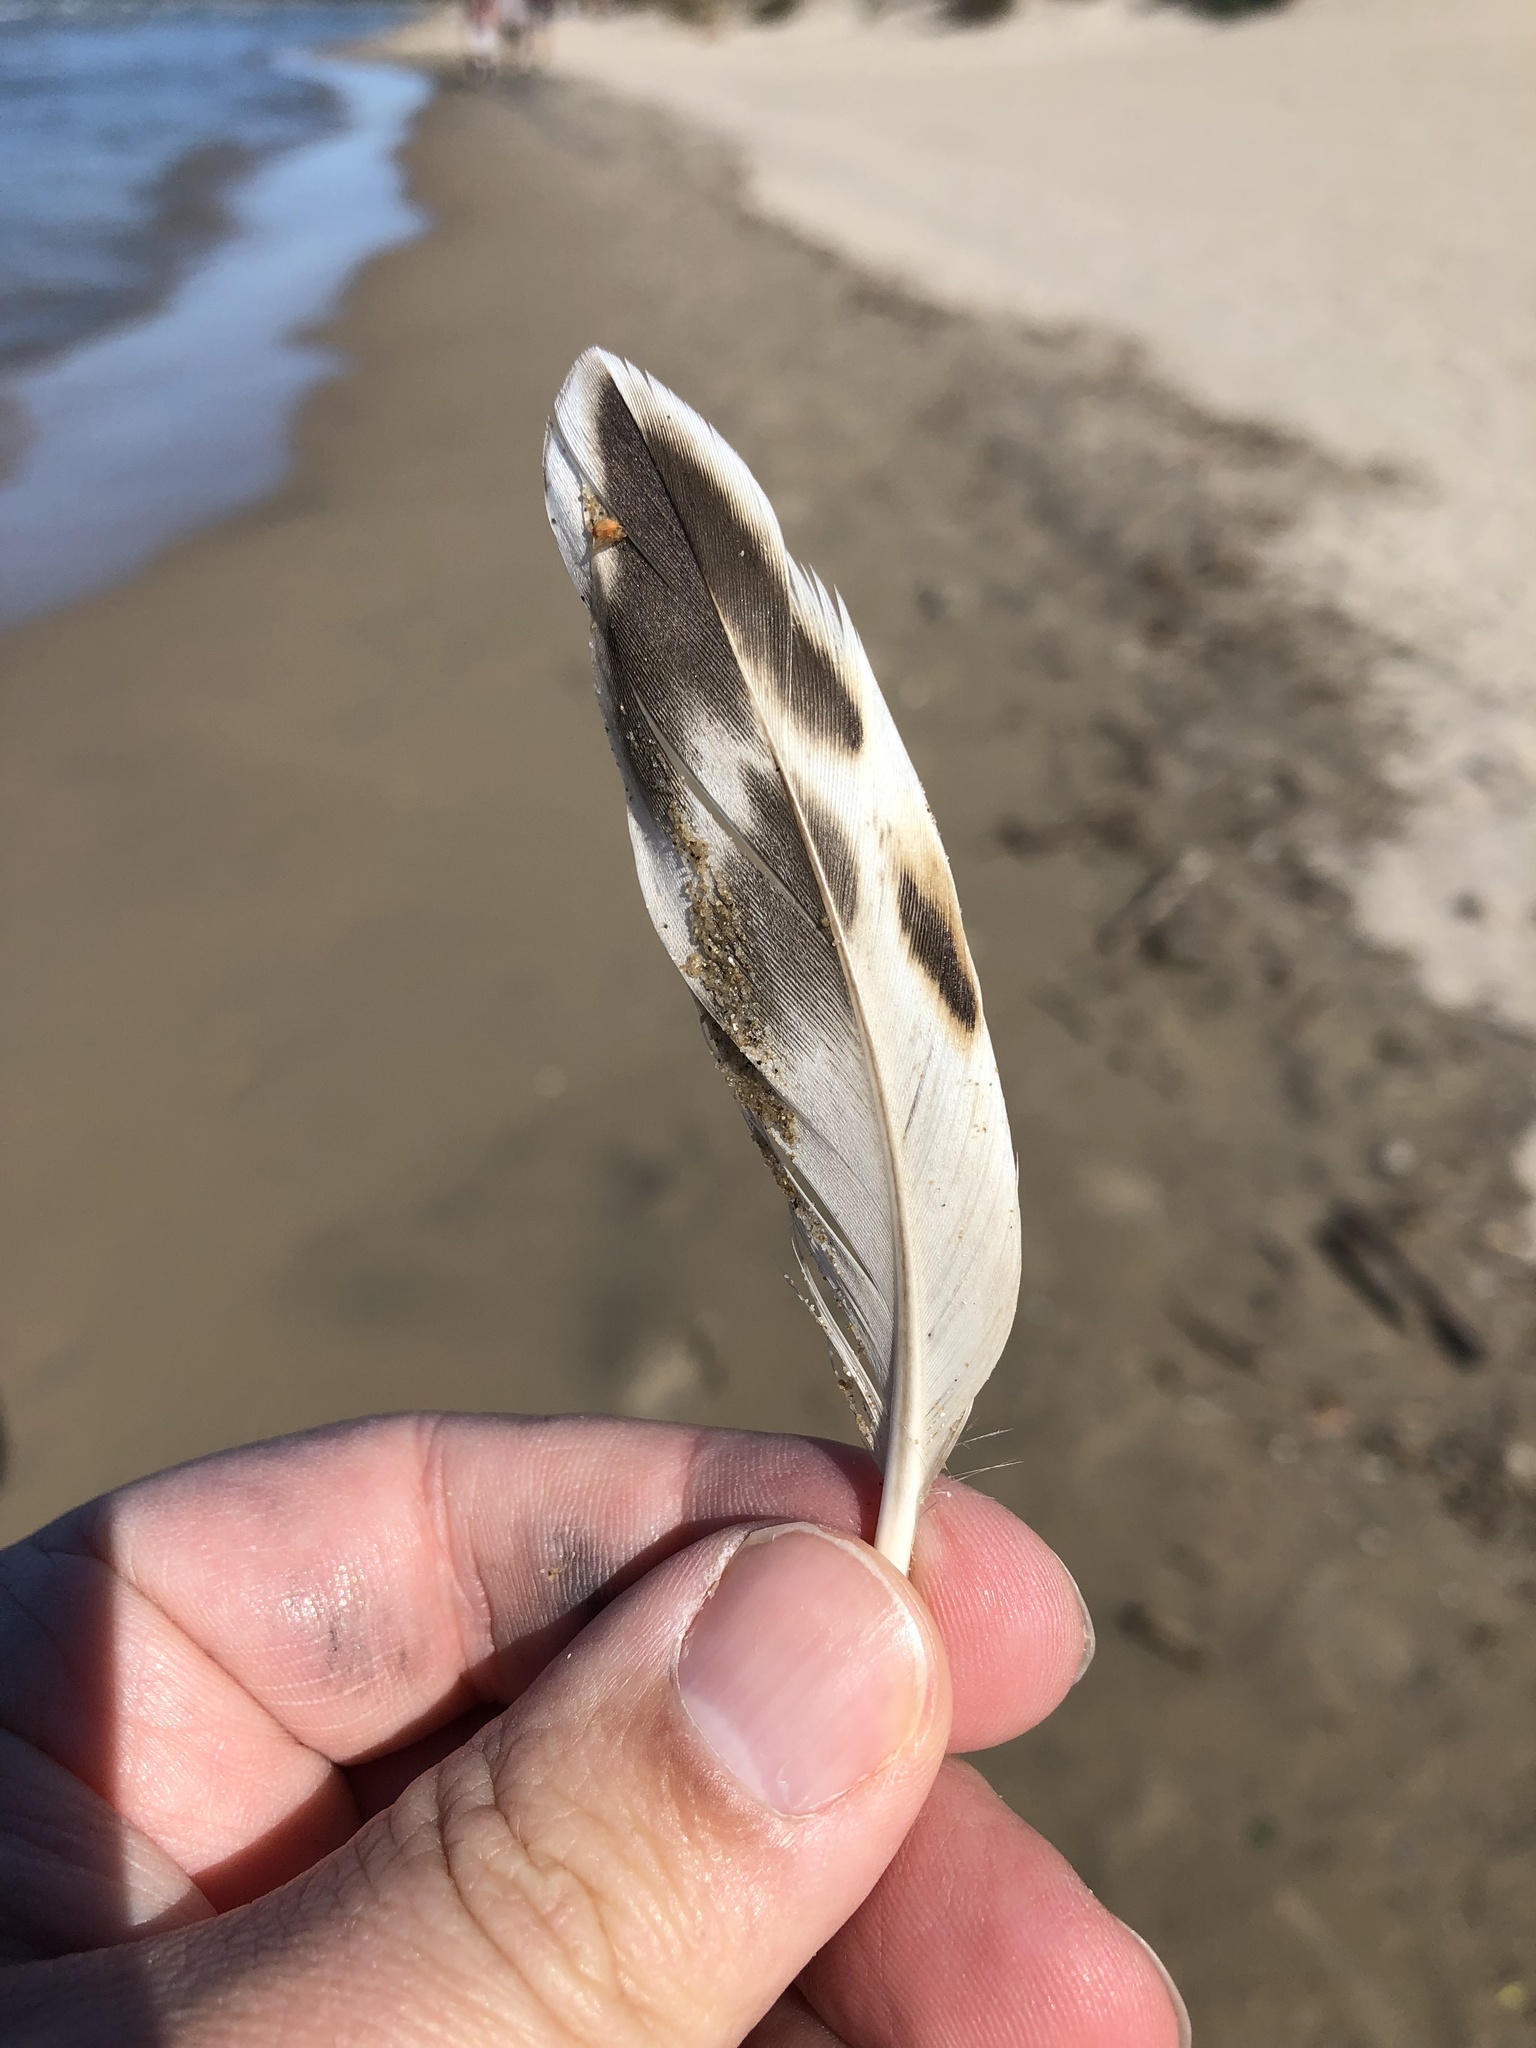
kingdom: Animalia
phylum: Chordata
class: Aves
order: Anseriformes
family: Anatidae
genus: Anas
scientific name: Anas platyrhynchos
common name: Mallard
